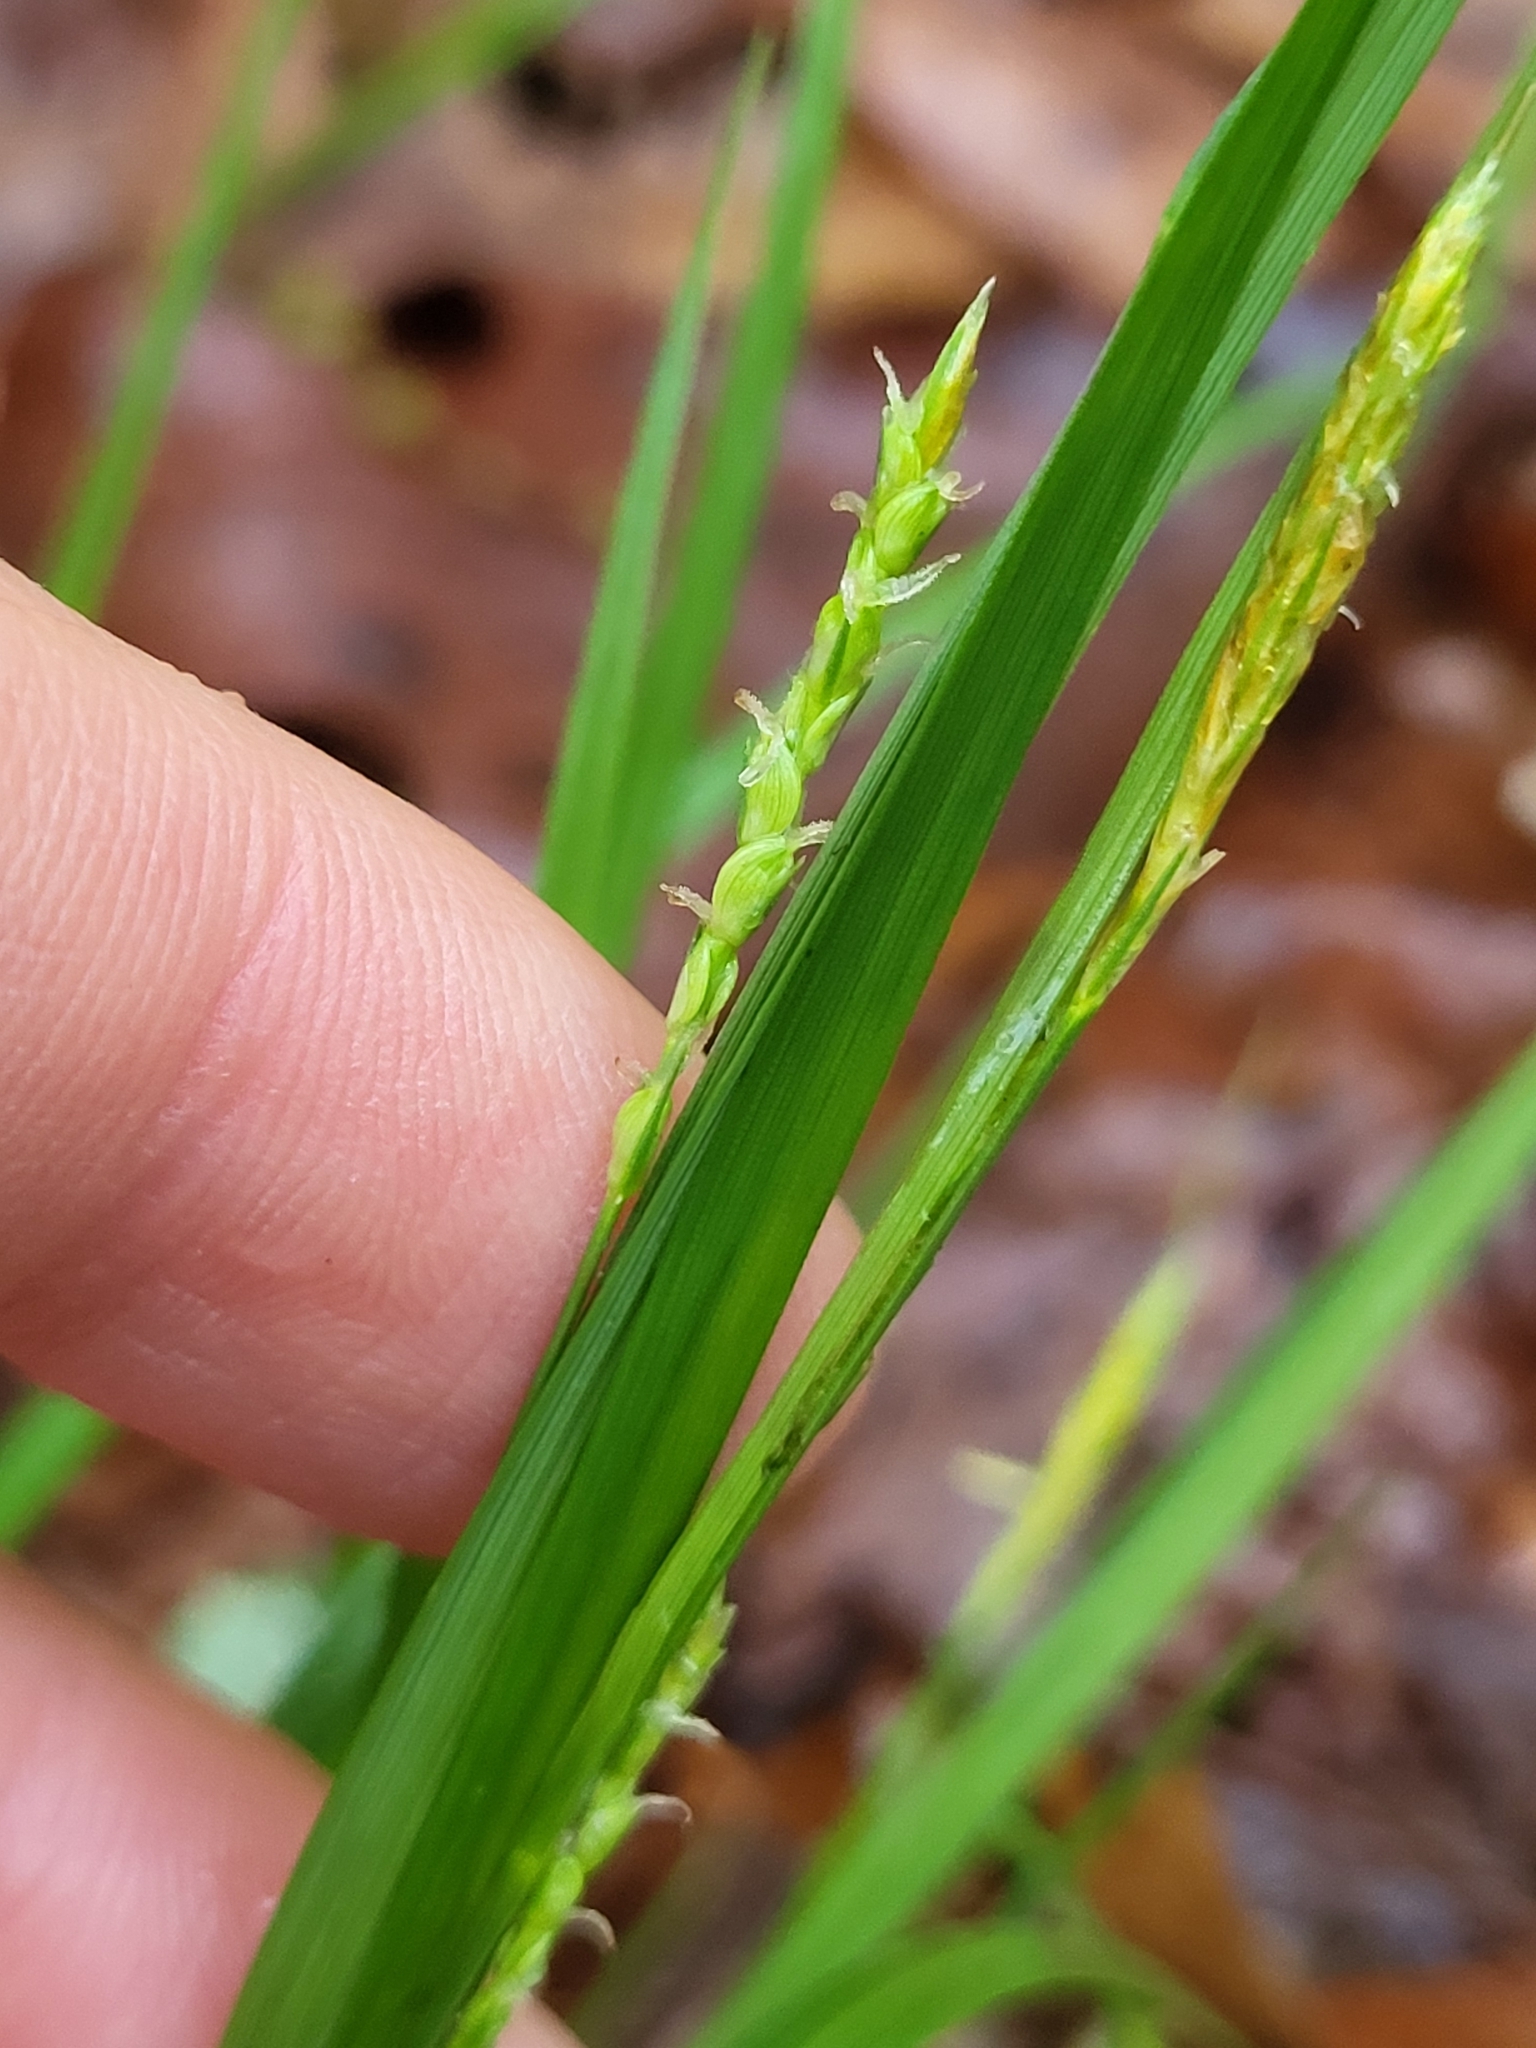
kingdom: Plantae
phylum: Tracheophyta
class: Liliopsida
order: Poales
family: Cyperaceae
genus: Carex
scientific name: Carex digitalis
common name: Slender wood sedge
